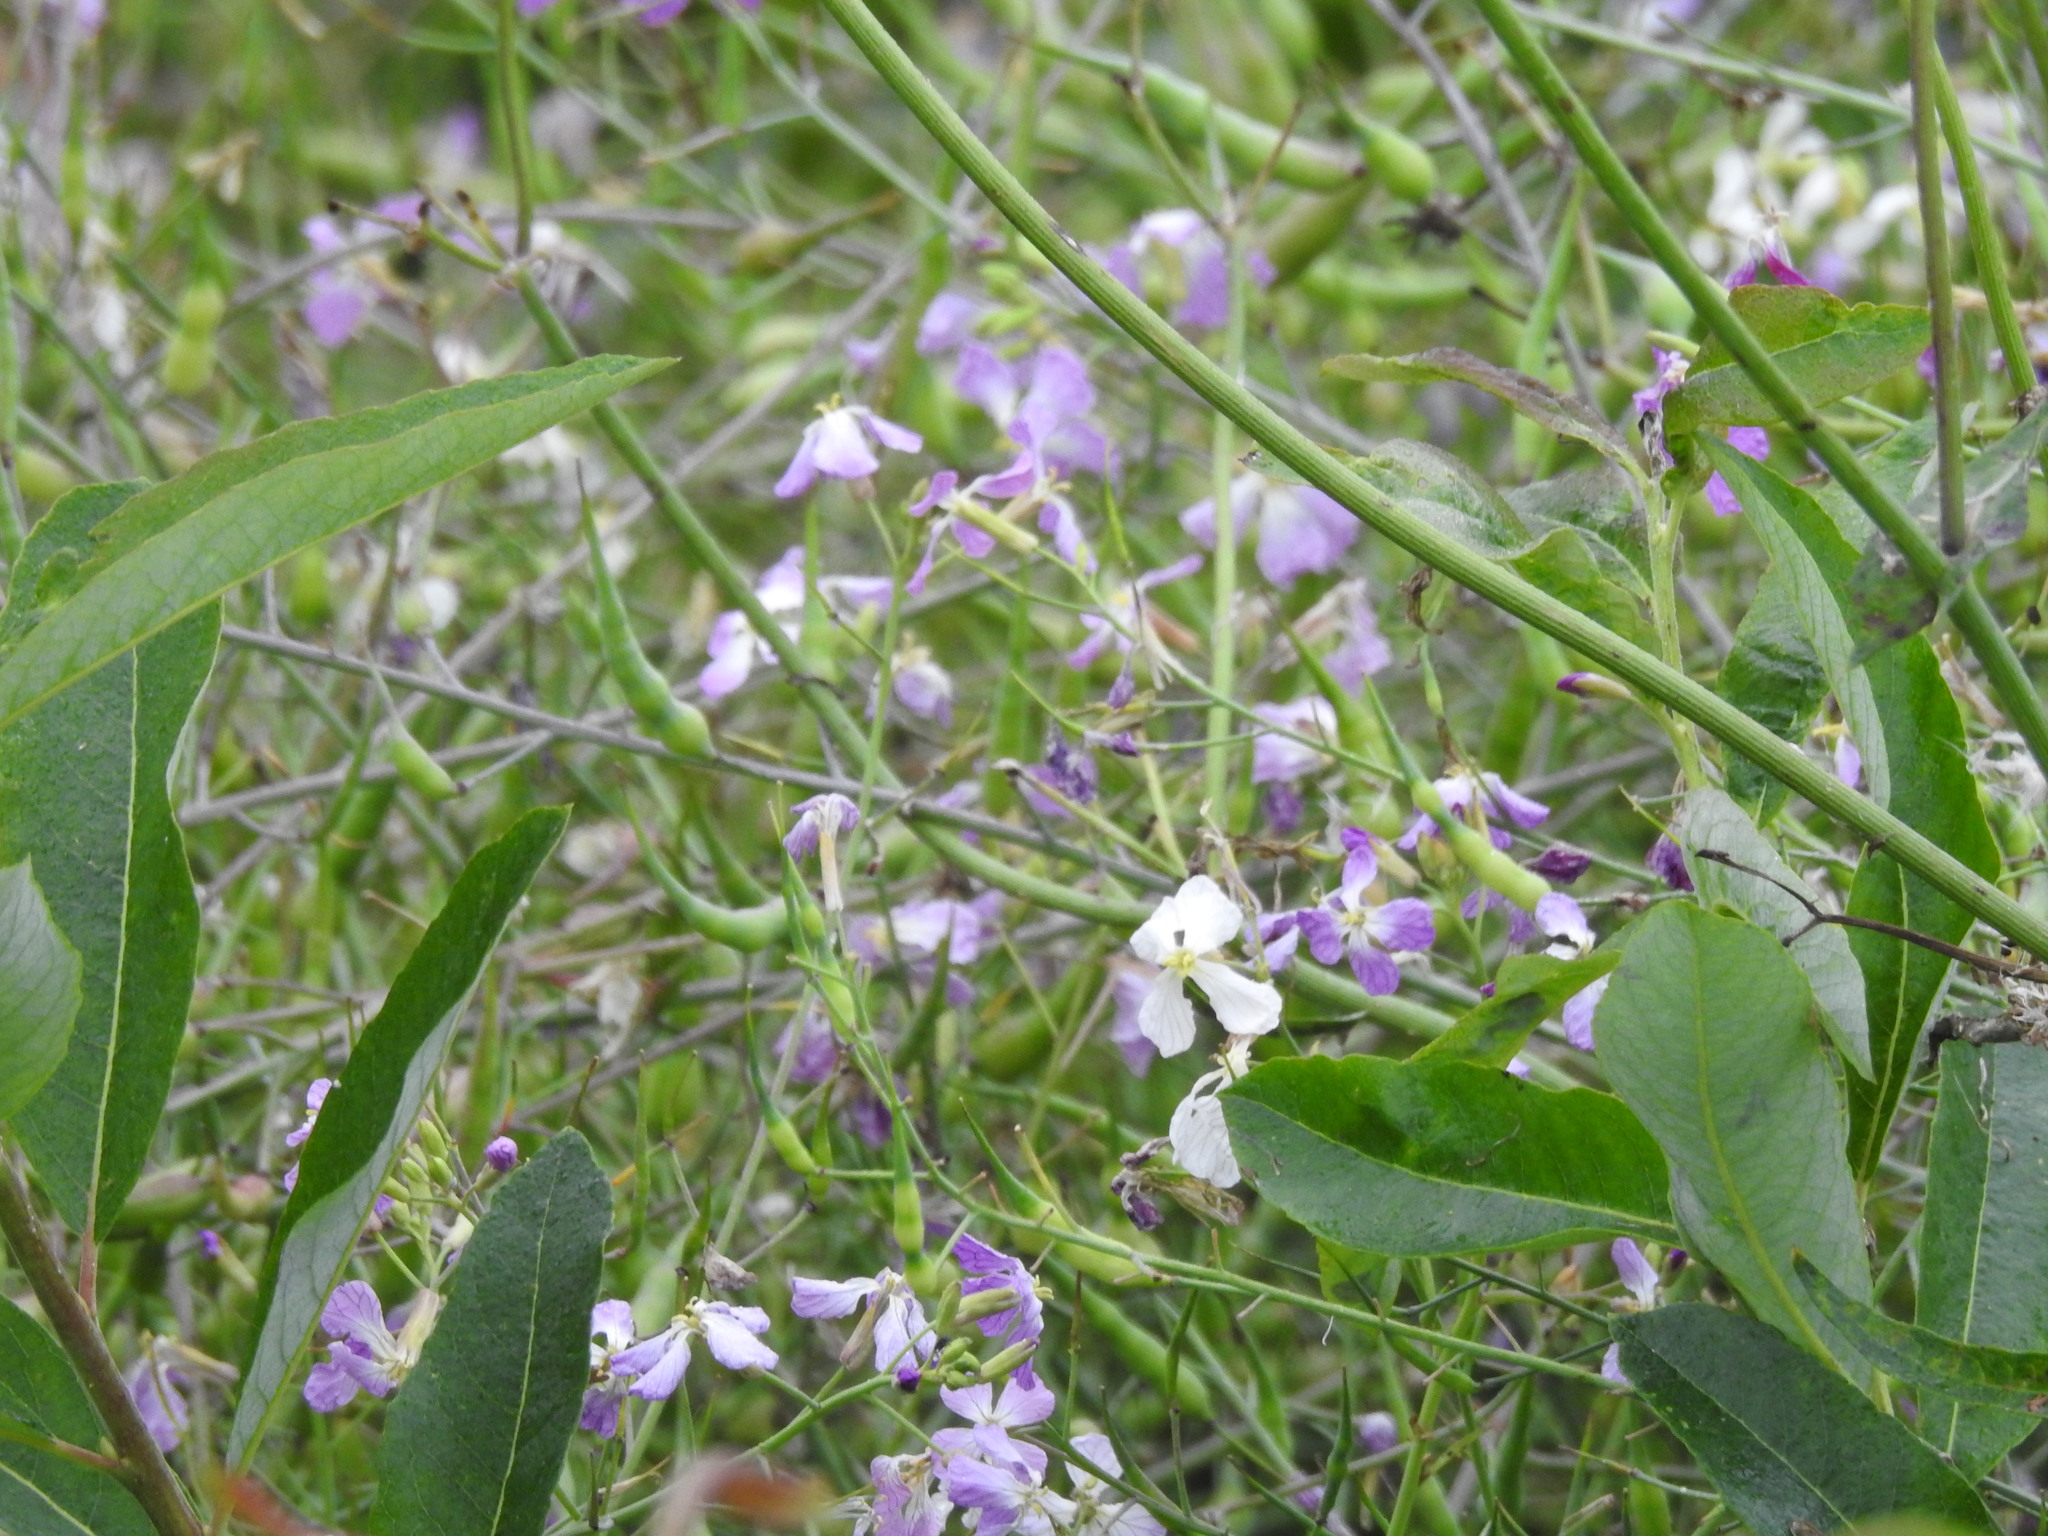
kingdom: Plantae
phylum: Tracheophyta
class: Magnoliopsida
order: Brassicales
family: Brassicaceae
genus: Raphanus
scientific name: Raphanus sativus
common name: Cultivated radish
